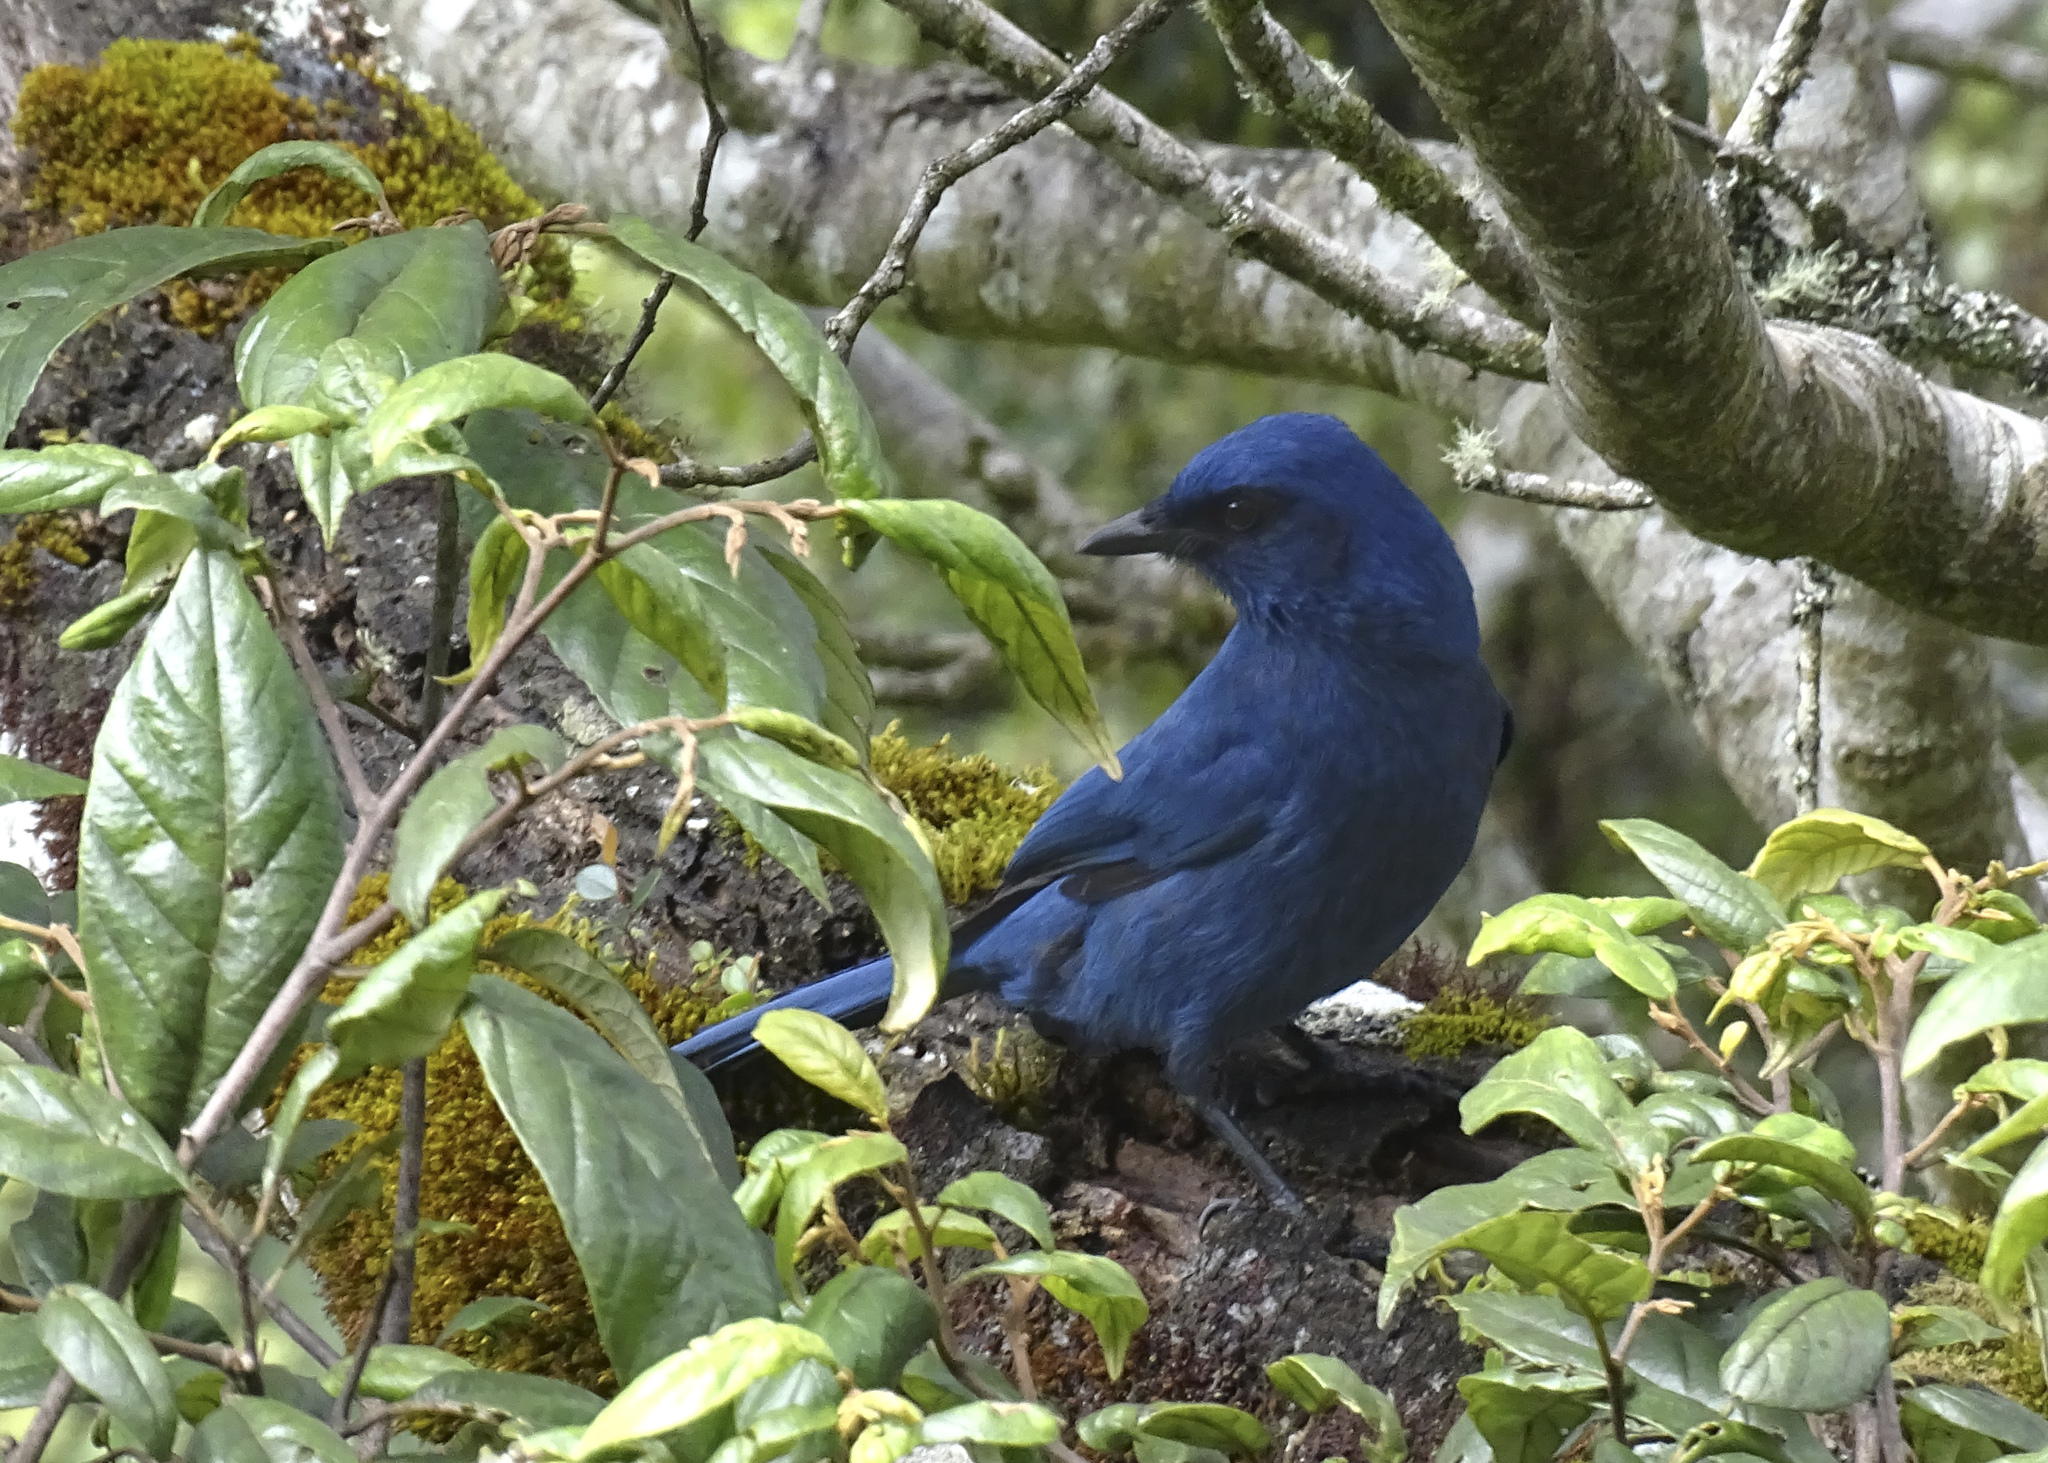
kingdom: Animalia
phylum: Chordata
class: Aves
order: Passeriformes
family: Corvidae
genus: Aphelocoma
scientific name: Aphelocoma unicolor
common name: Unicolored jay
